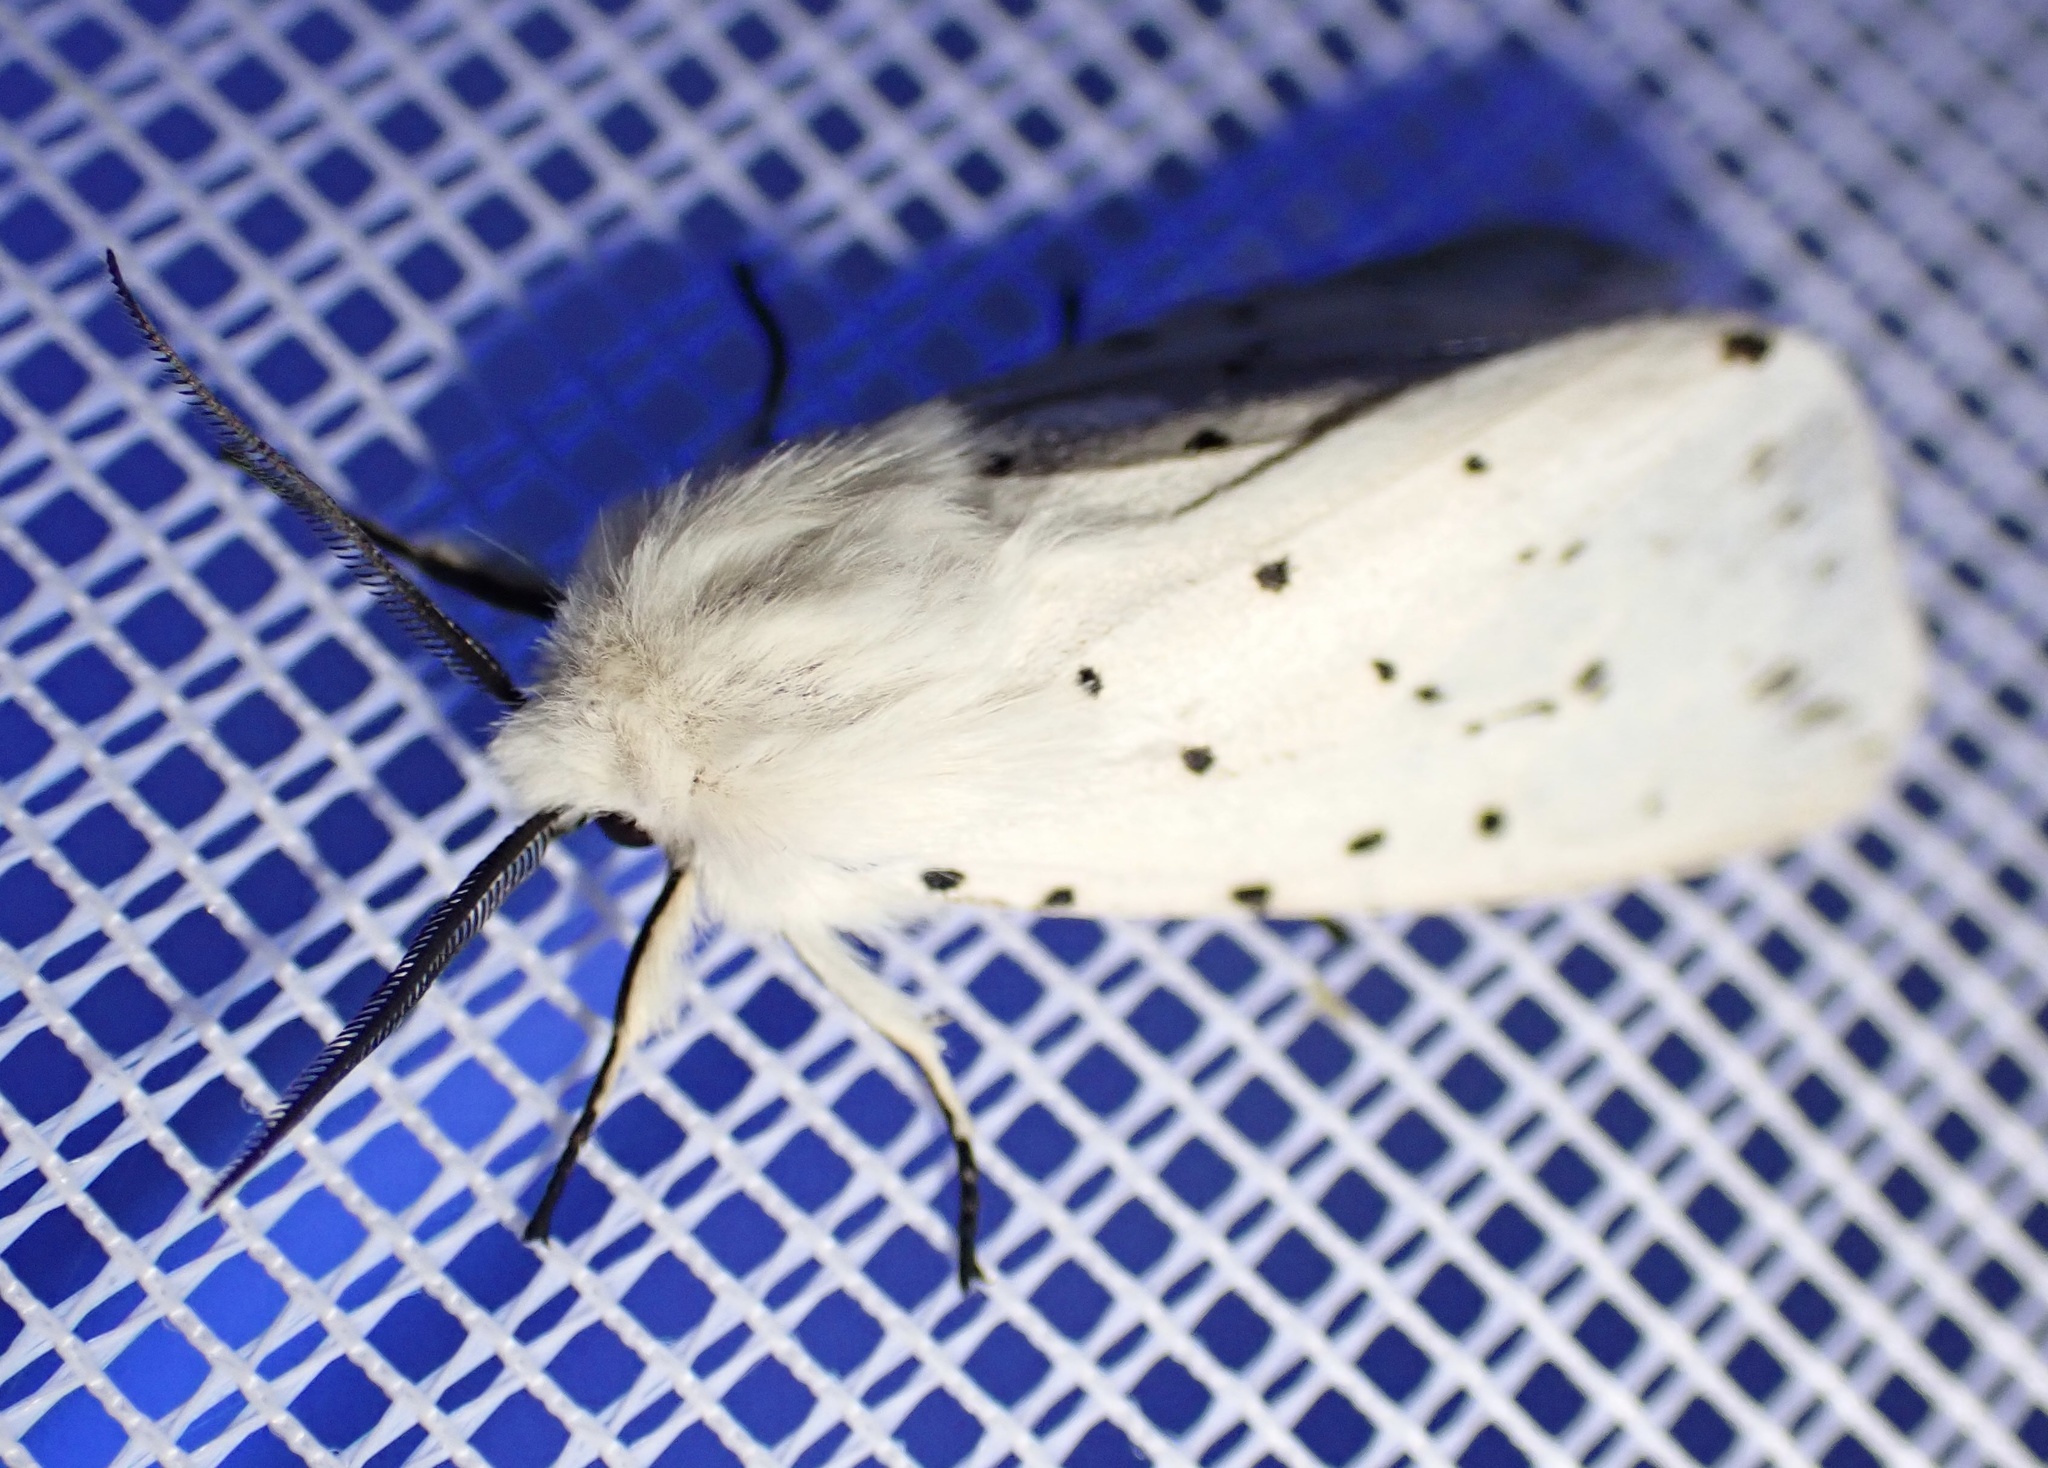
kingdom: Animalia
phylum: Arthropoda
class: Insecta
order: Lepidoptera
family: Erebidae
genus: Spilosoma
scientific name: Spilosoma lubricipeda
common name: White ermine
